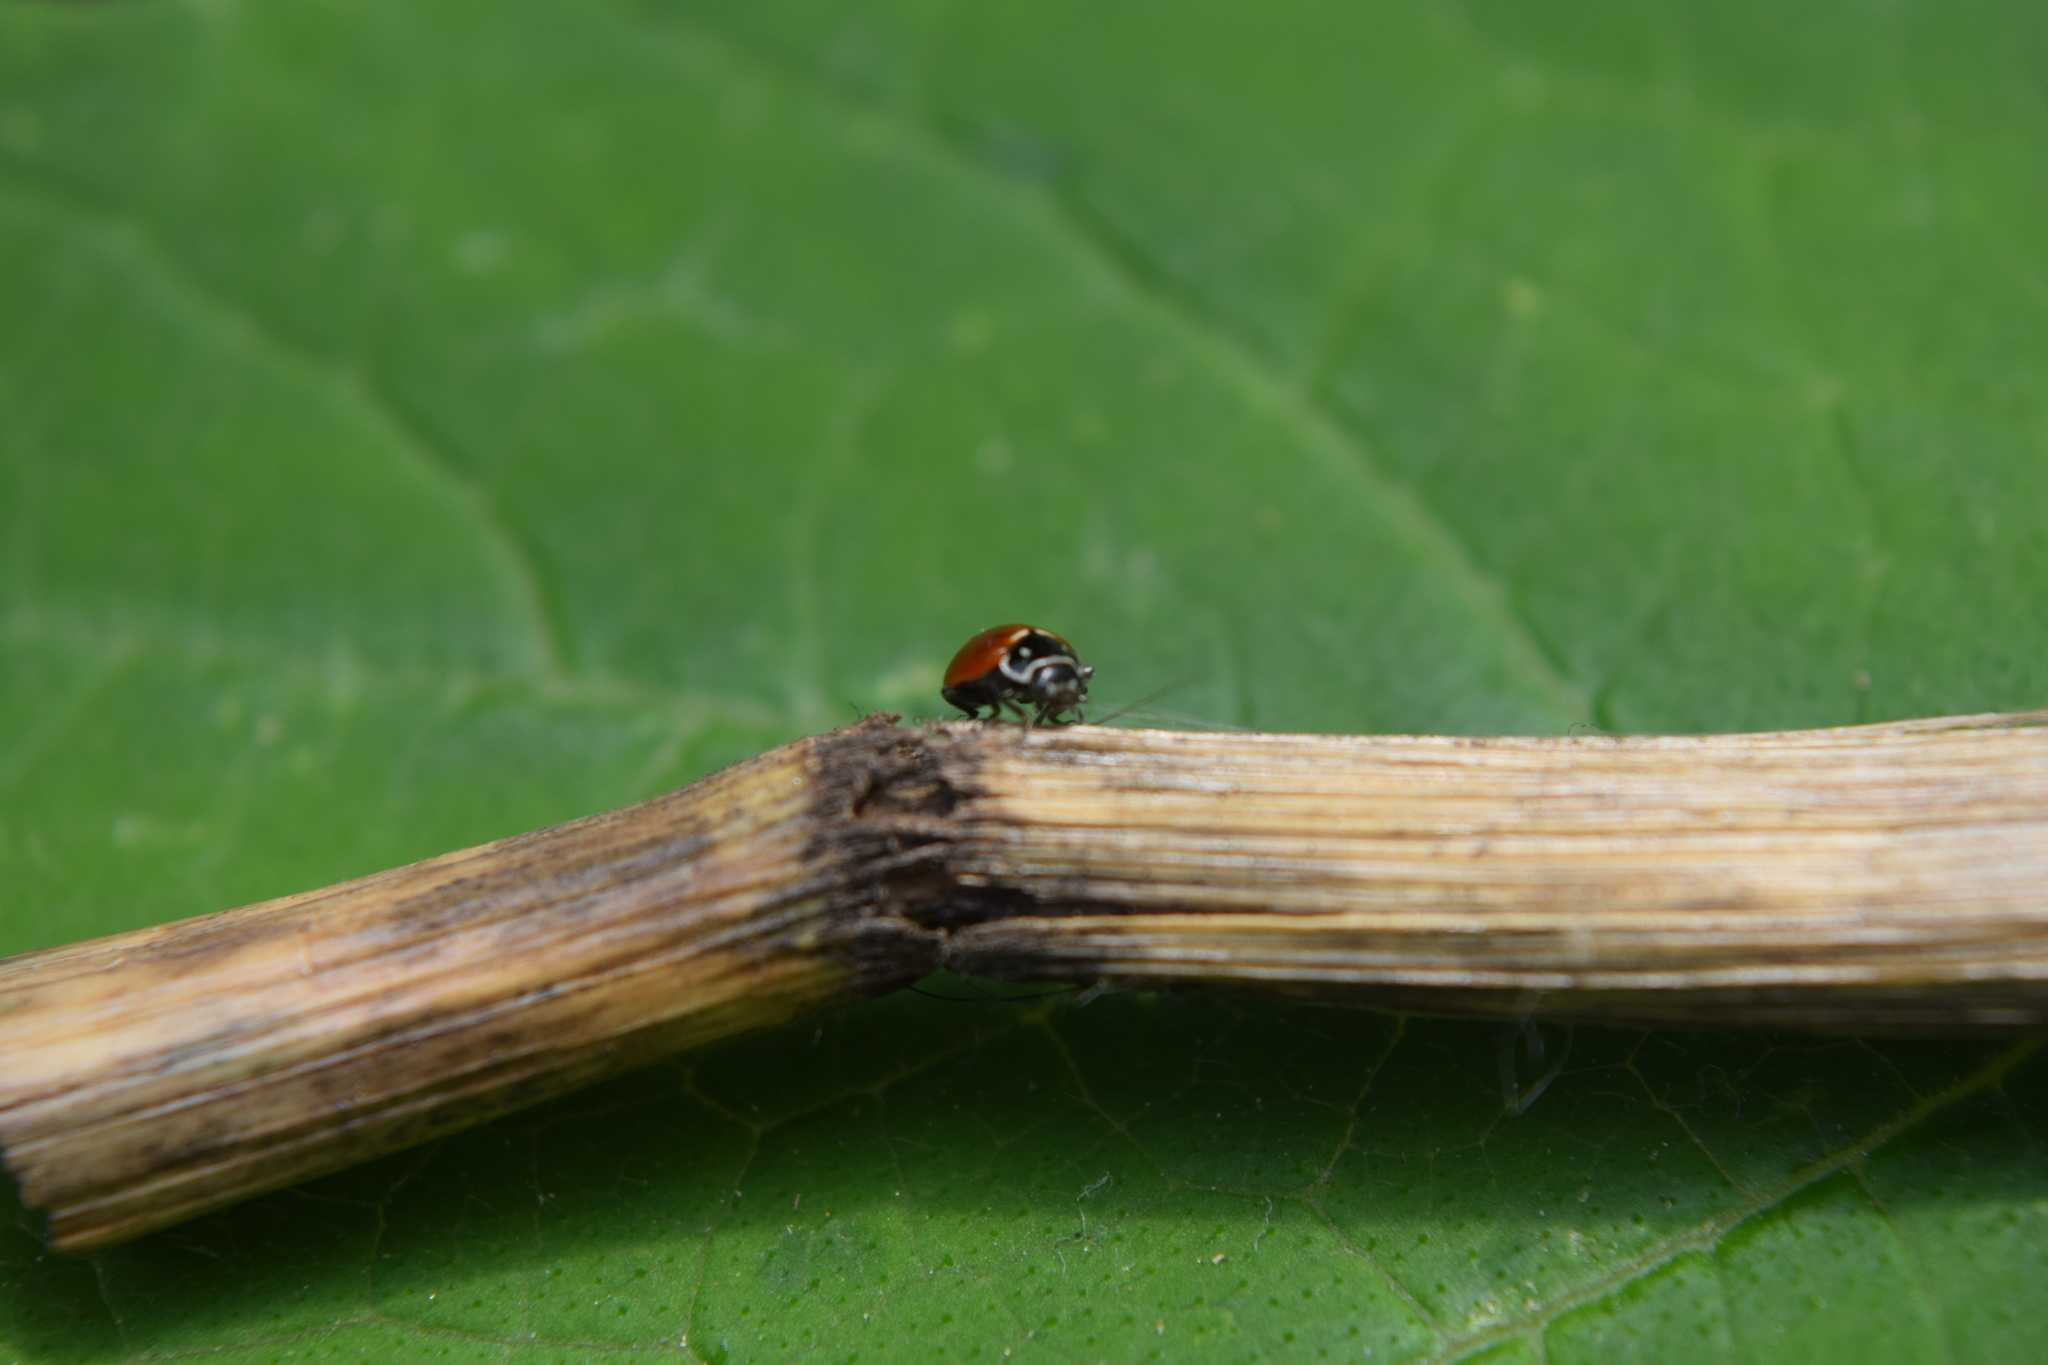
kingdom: Animalia
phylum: Arthropoda
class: Insecta
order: Coleoptera
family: Coccinellidae
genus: Cycloneda
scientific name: Cycloneda emarginata
